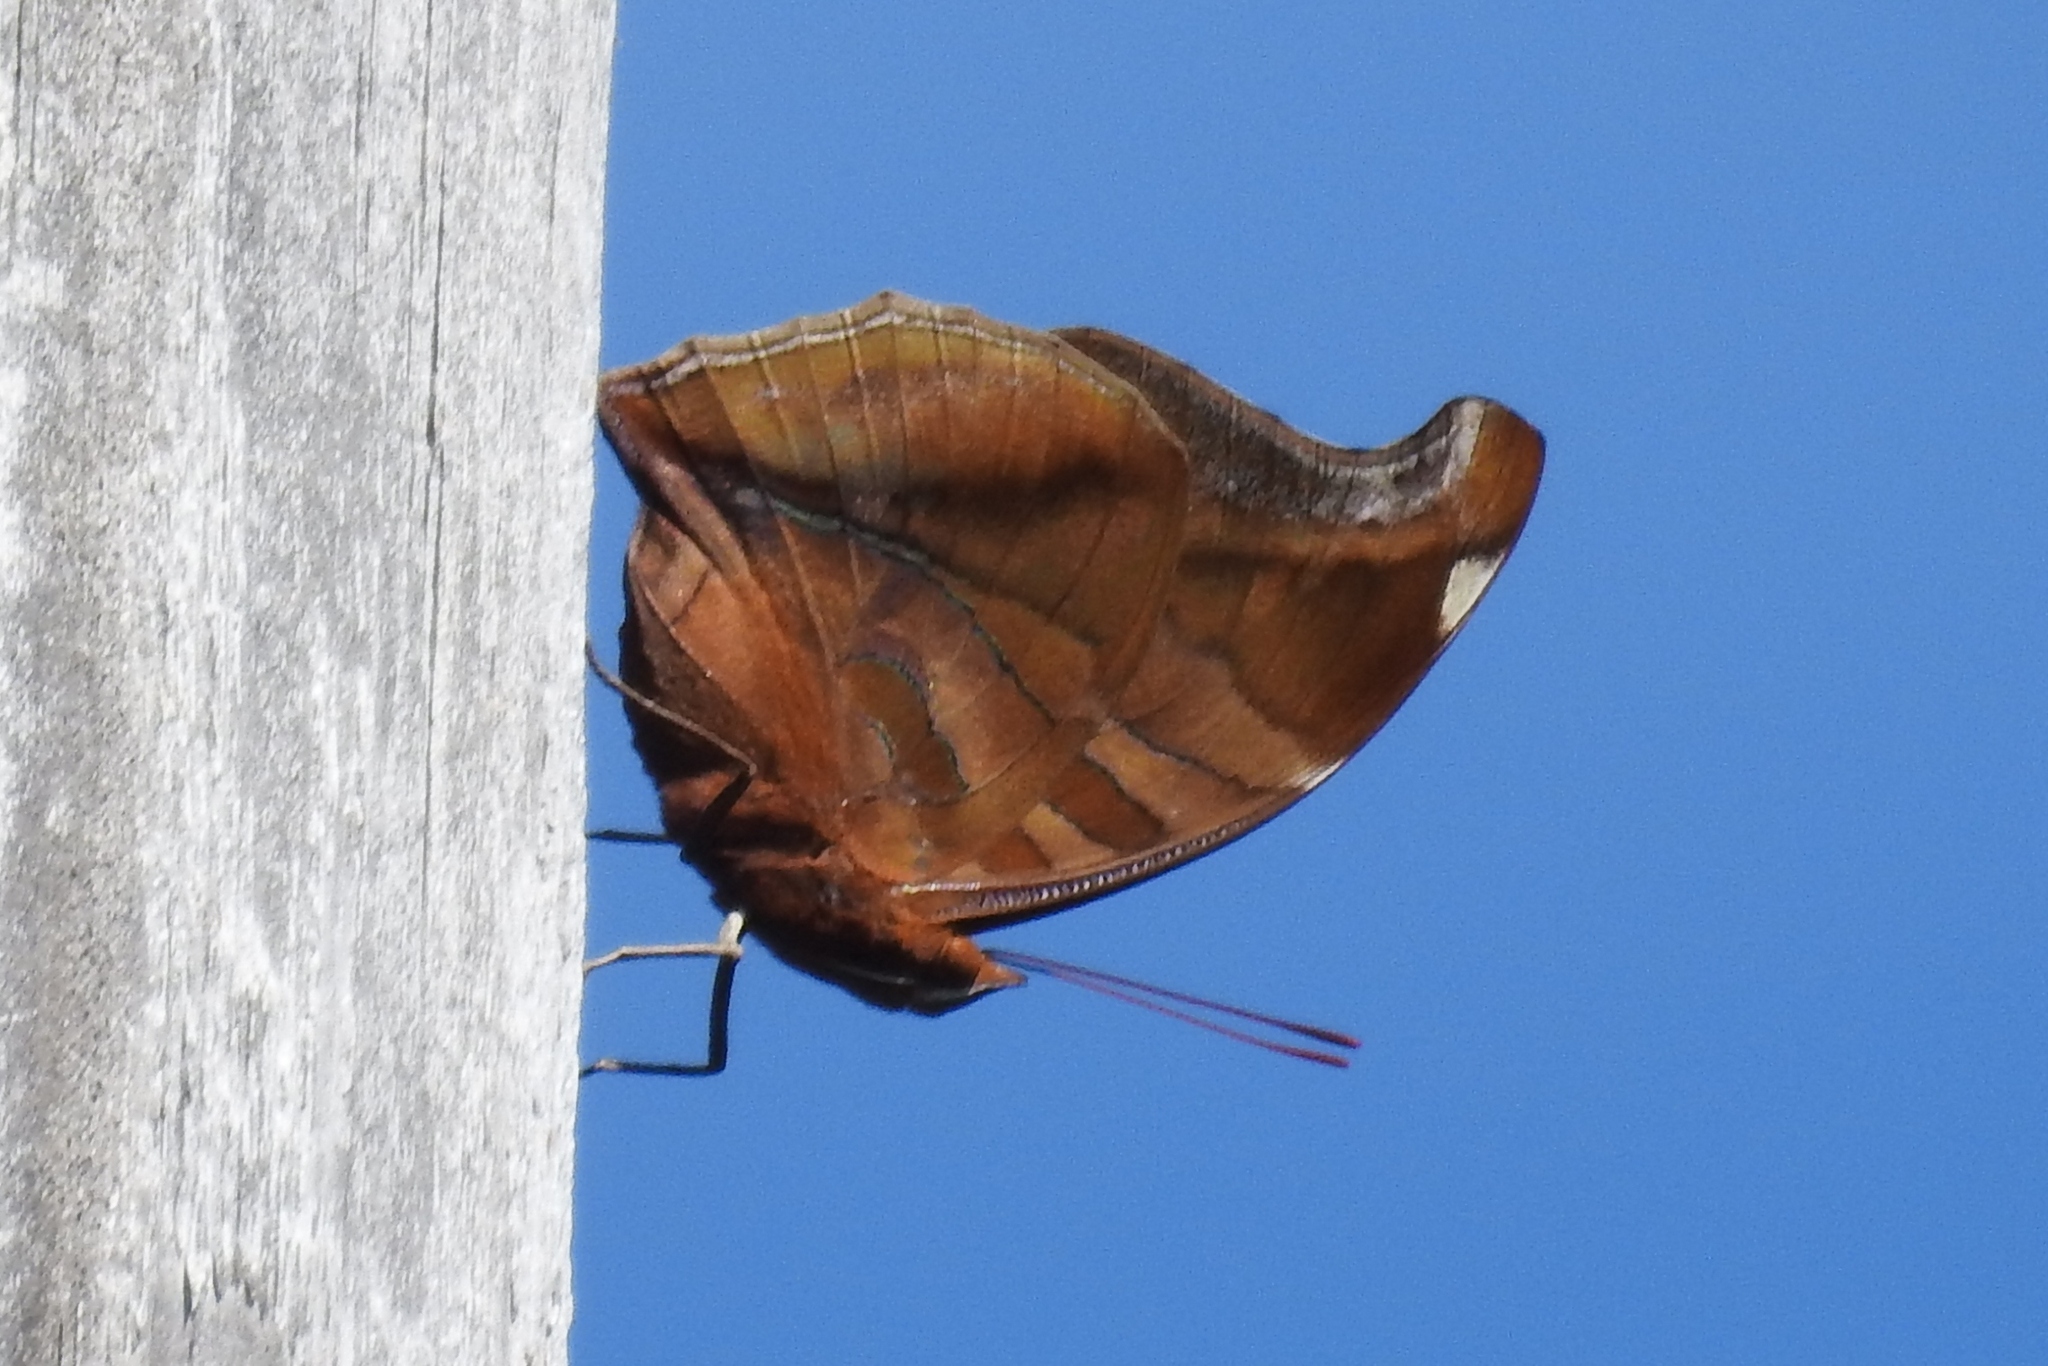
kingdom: Animalia
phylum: Arthropoda
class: Insecta
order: Lepidoptera
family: Nymphalidae
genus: Historis
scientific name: Historis odius
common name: Orion cecropian
